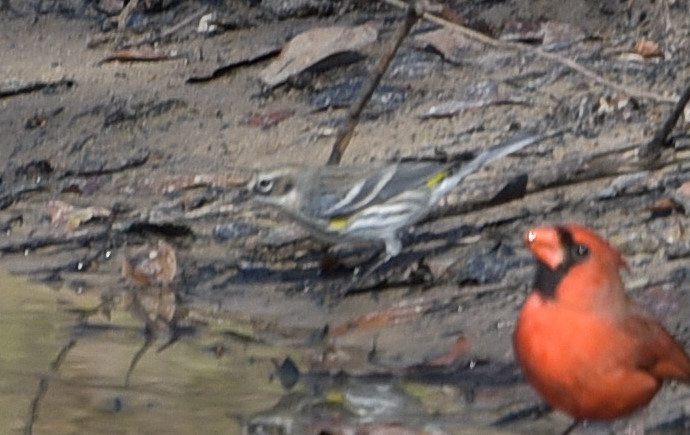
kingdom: Animalia
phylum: Chordata
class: Aves
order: Passeriformes
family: Parulidae
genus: Setophaga
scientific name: Setophaga coronata
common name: Myrtle warbler
